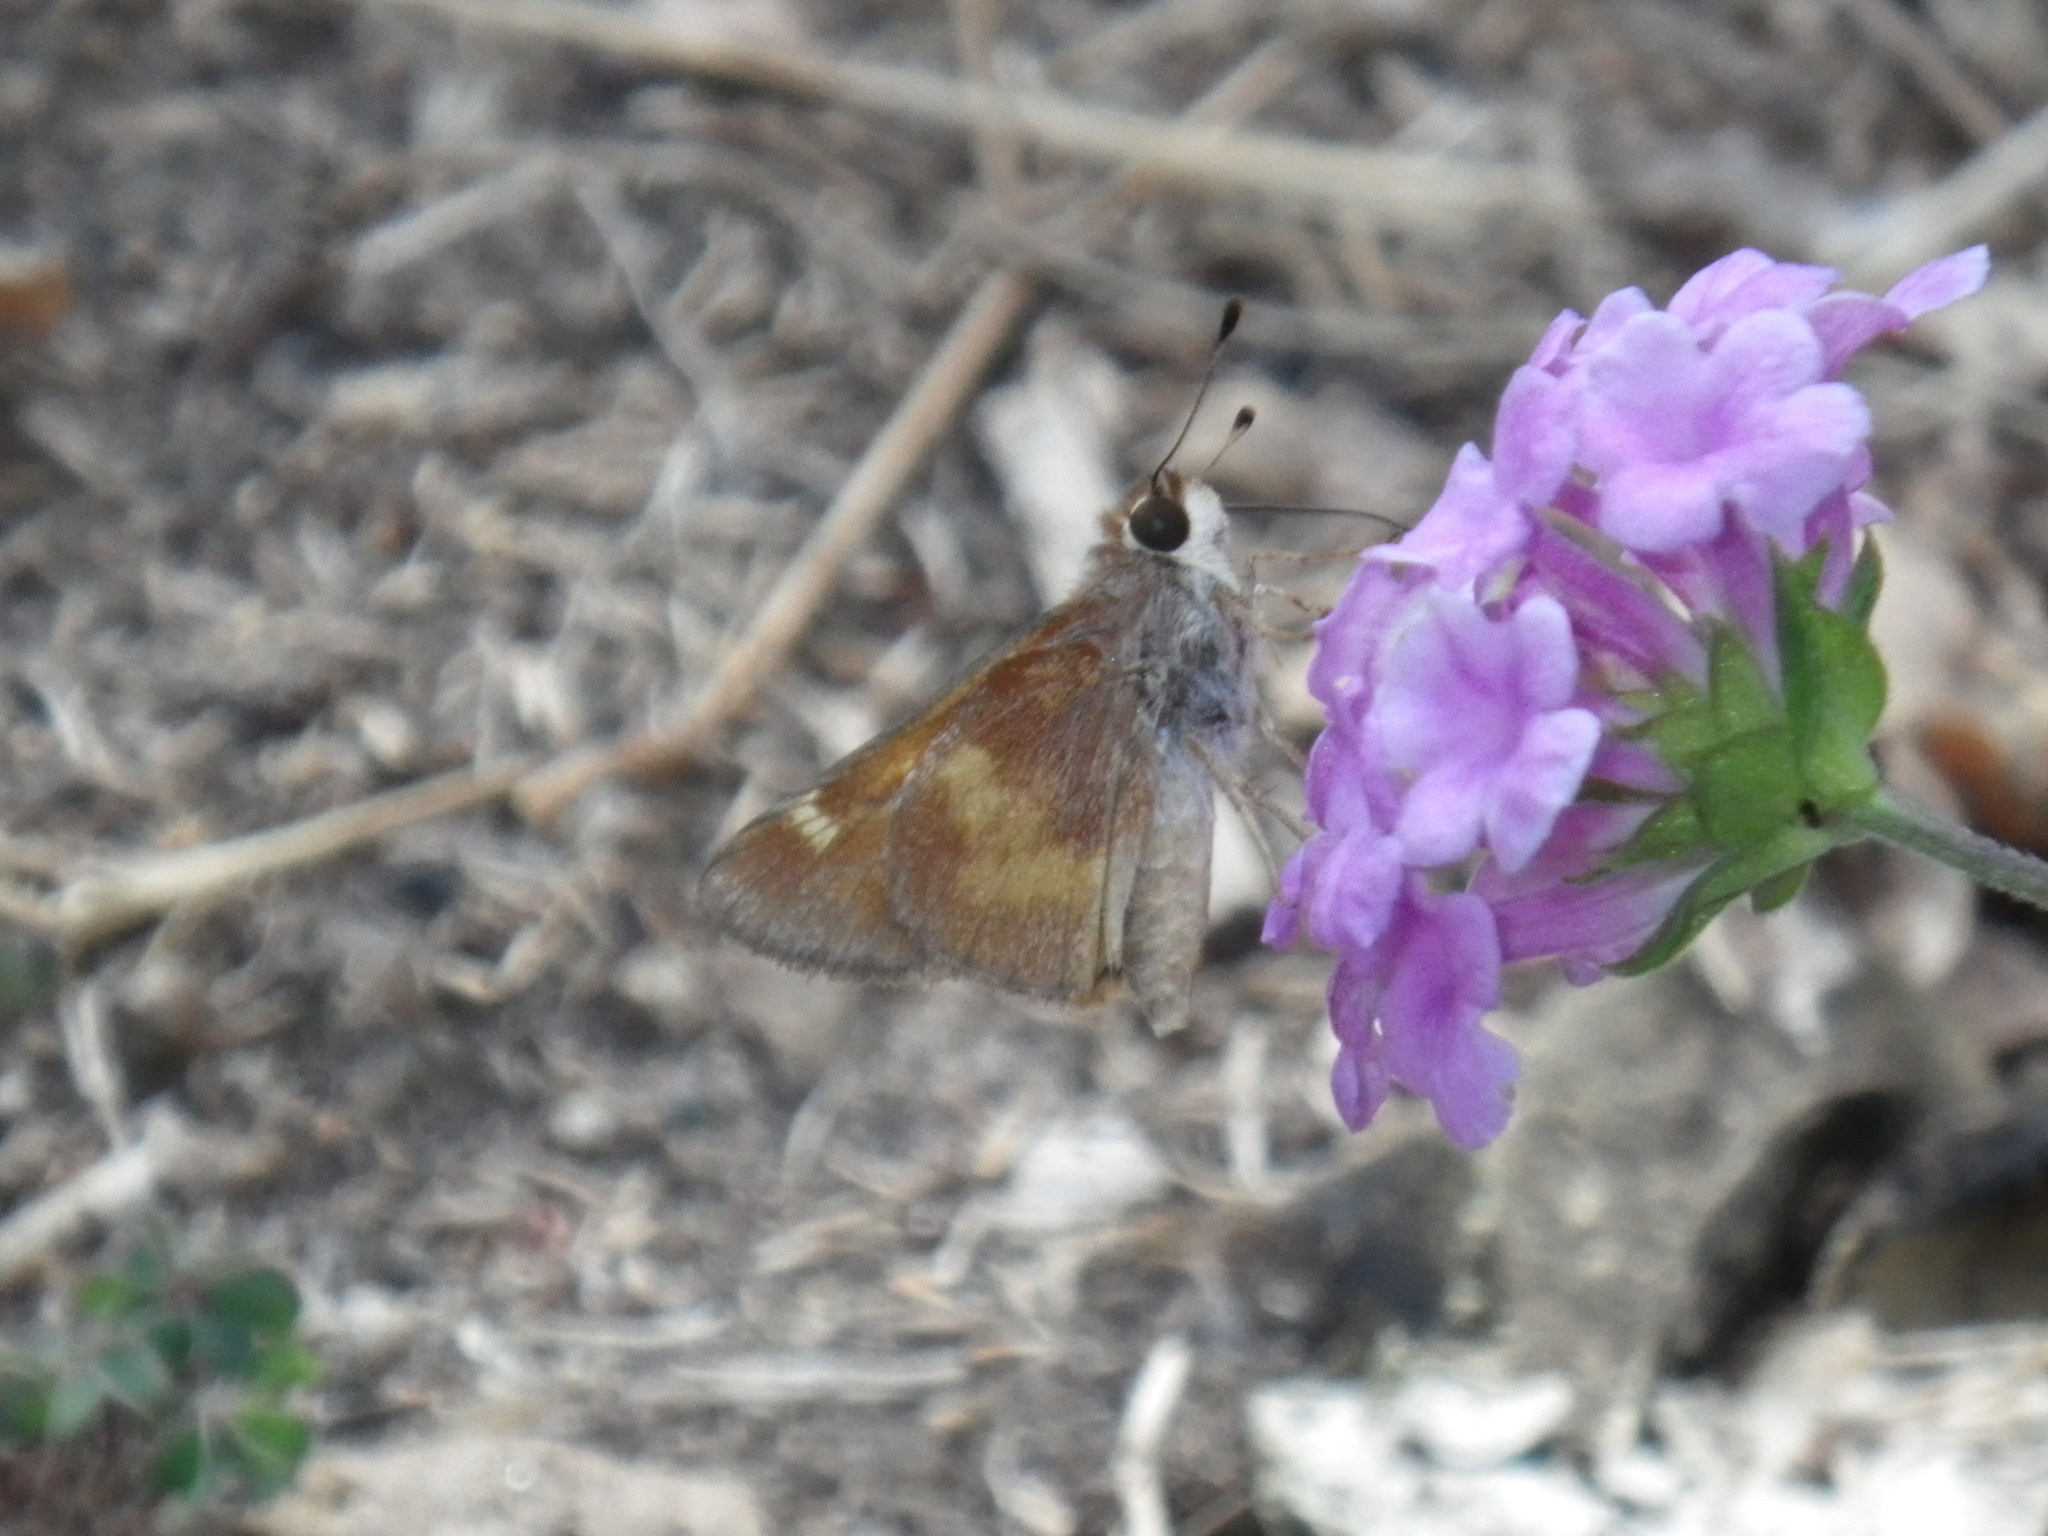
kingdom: Animalia
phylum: Arthropoda
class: Insecta
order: Lepidoptera
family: Hesperiidae
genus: Lon
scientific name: Lon melane
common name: Umber skipper
